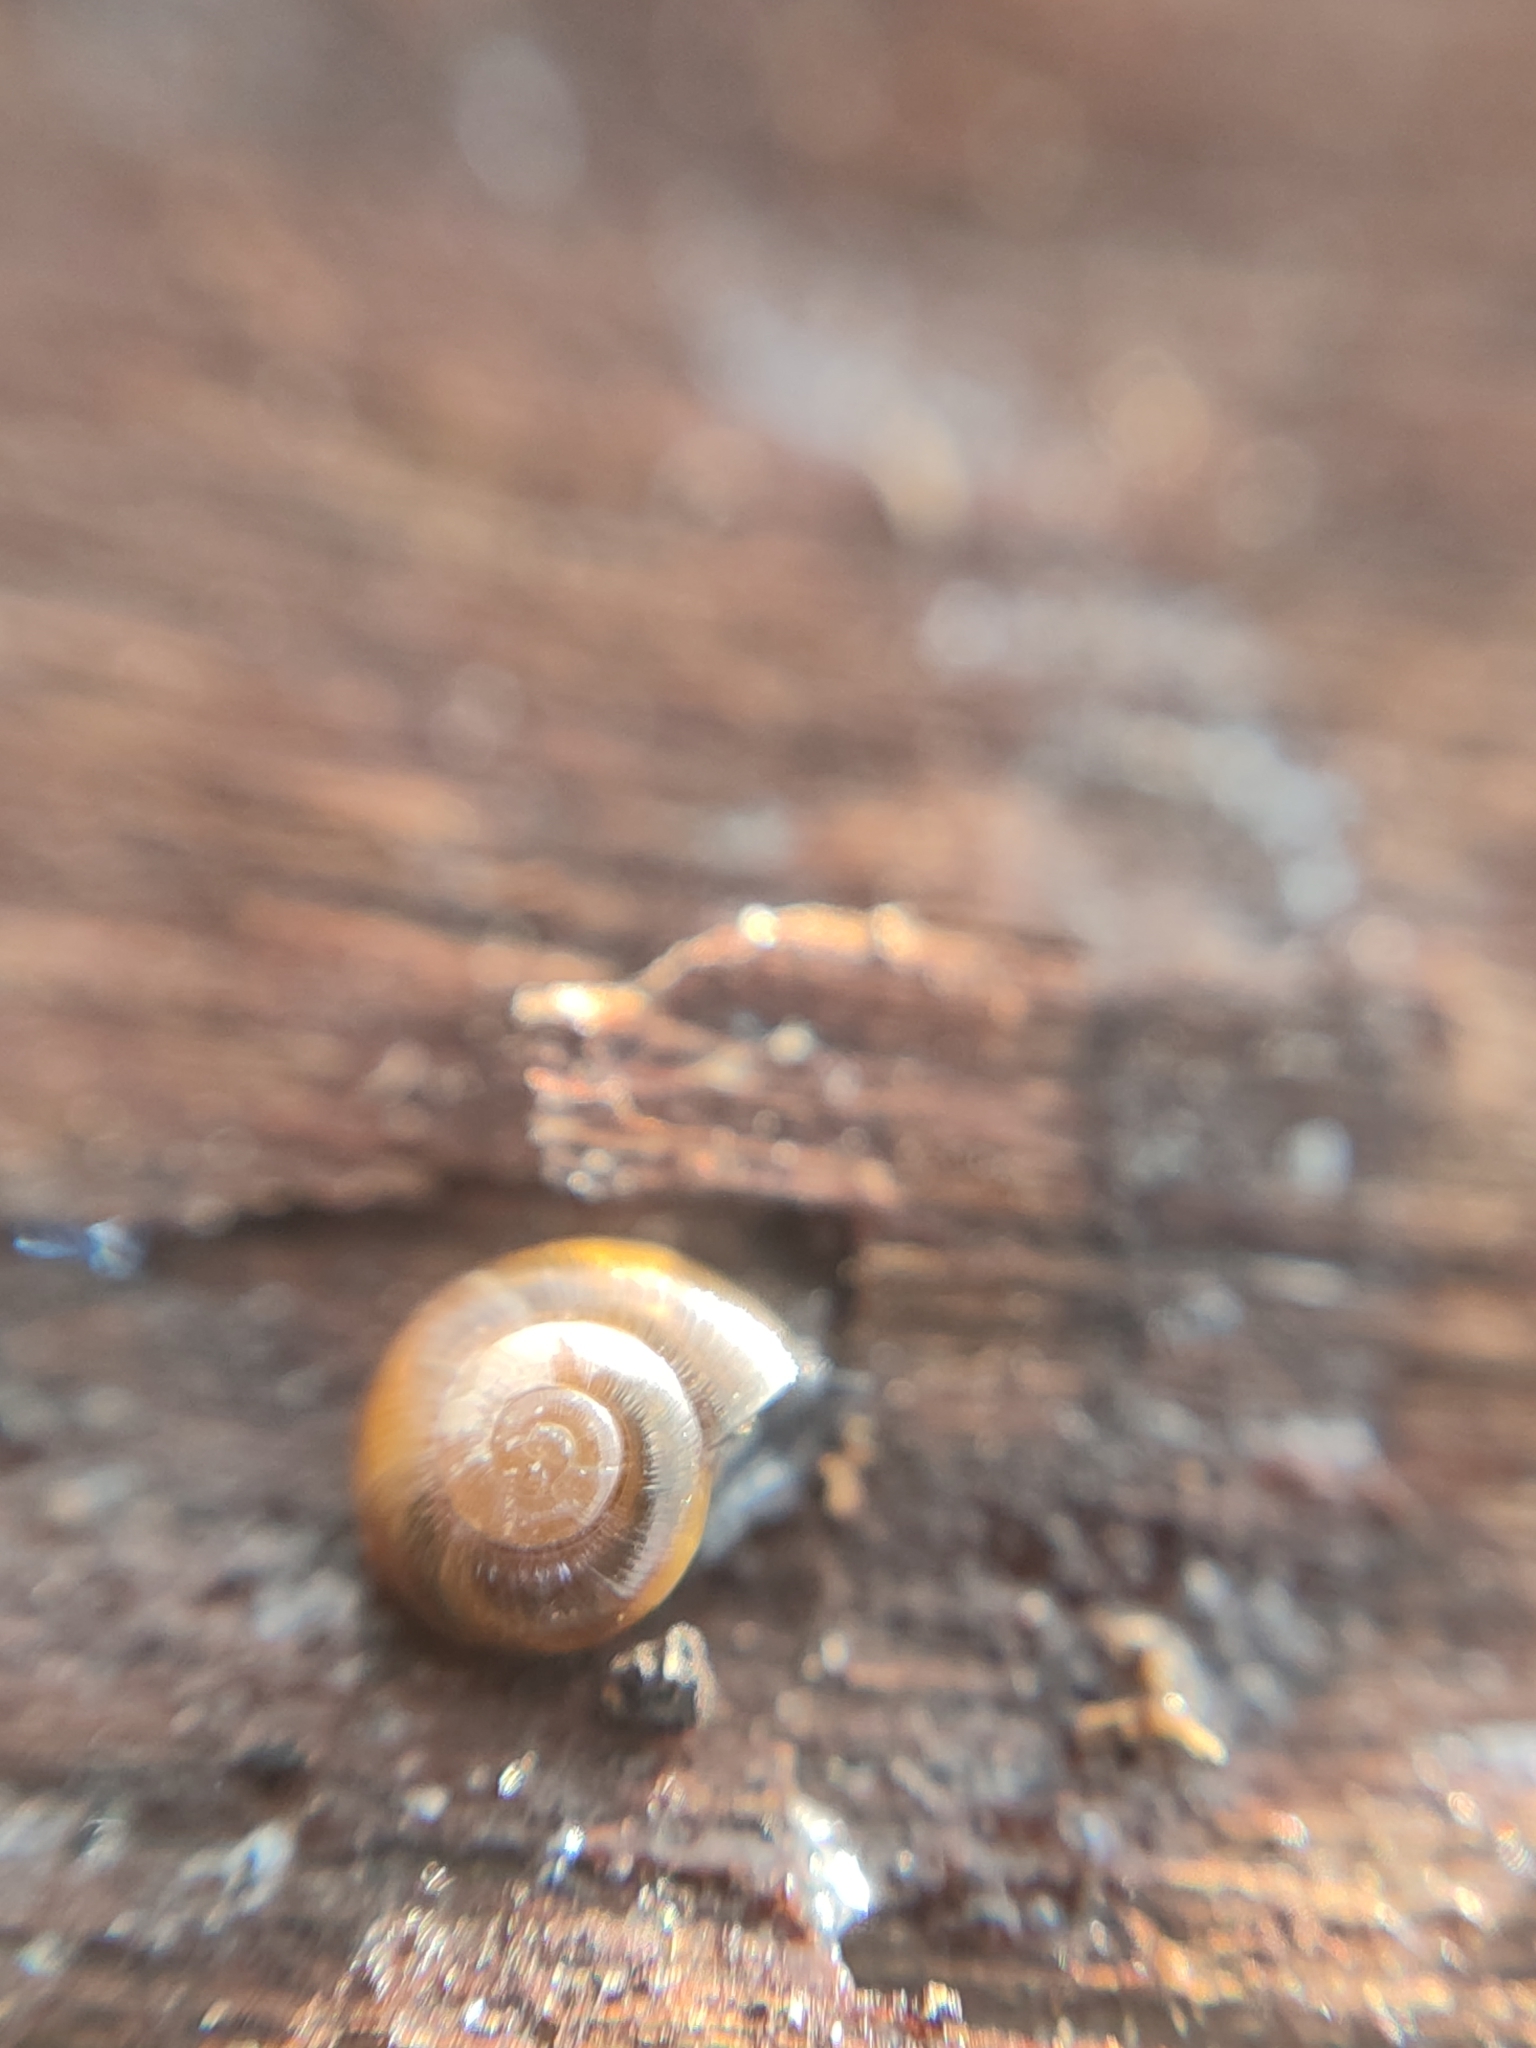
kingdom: Animalia
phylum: Mollusca
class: Gastropoda
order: Stylommatophora
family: Gastrodontidae
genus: Perpolita
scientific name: Perpolita hammonis
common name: Rayed glass snail
